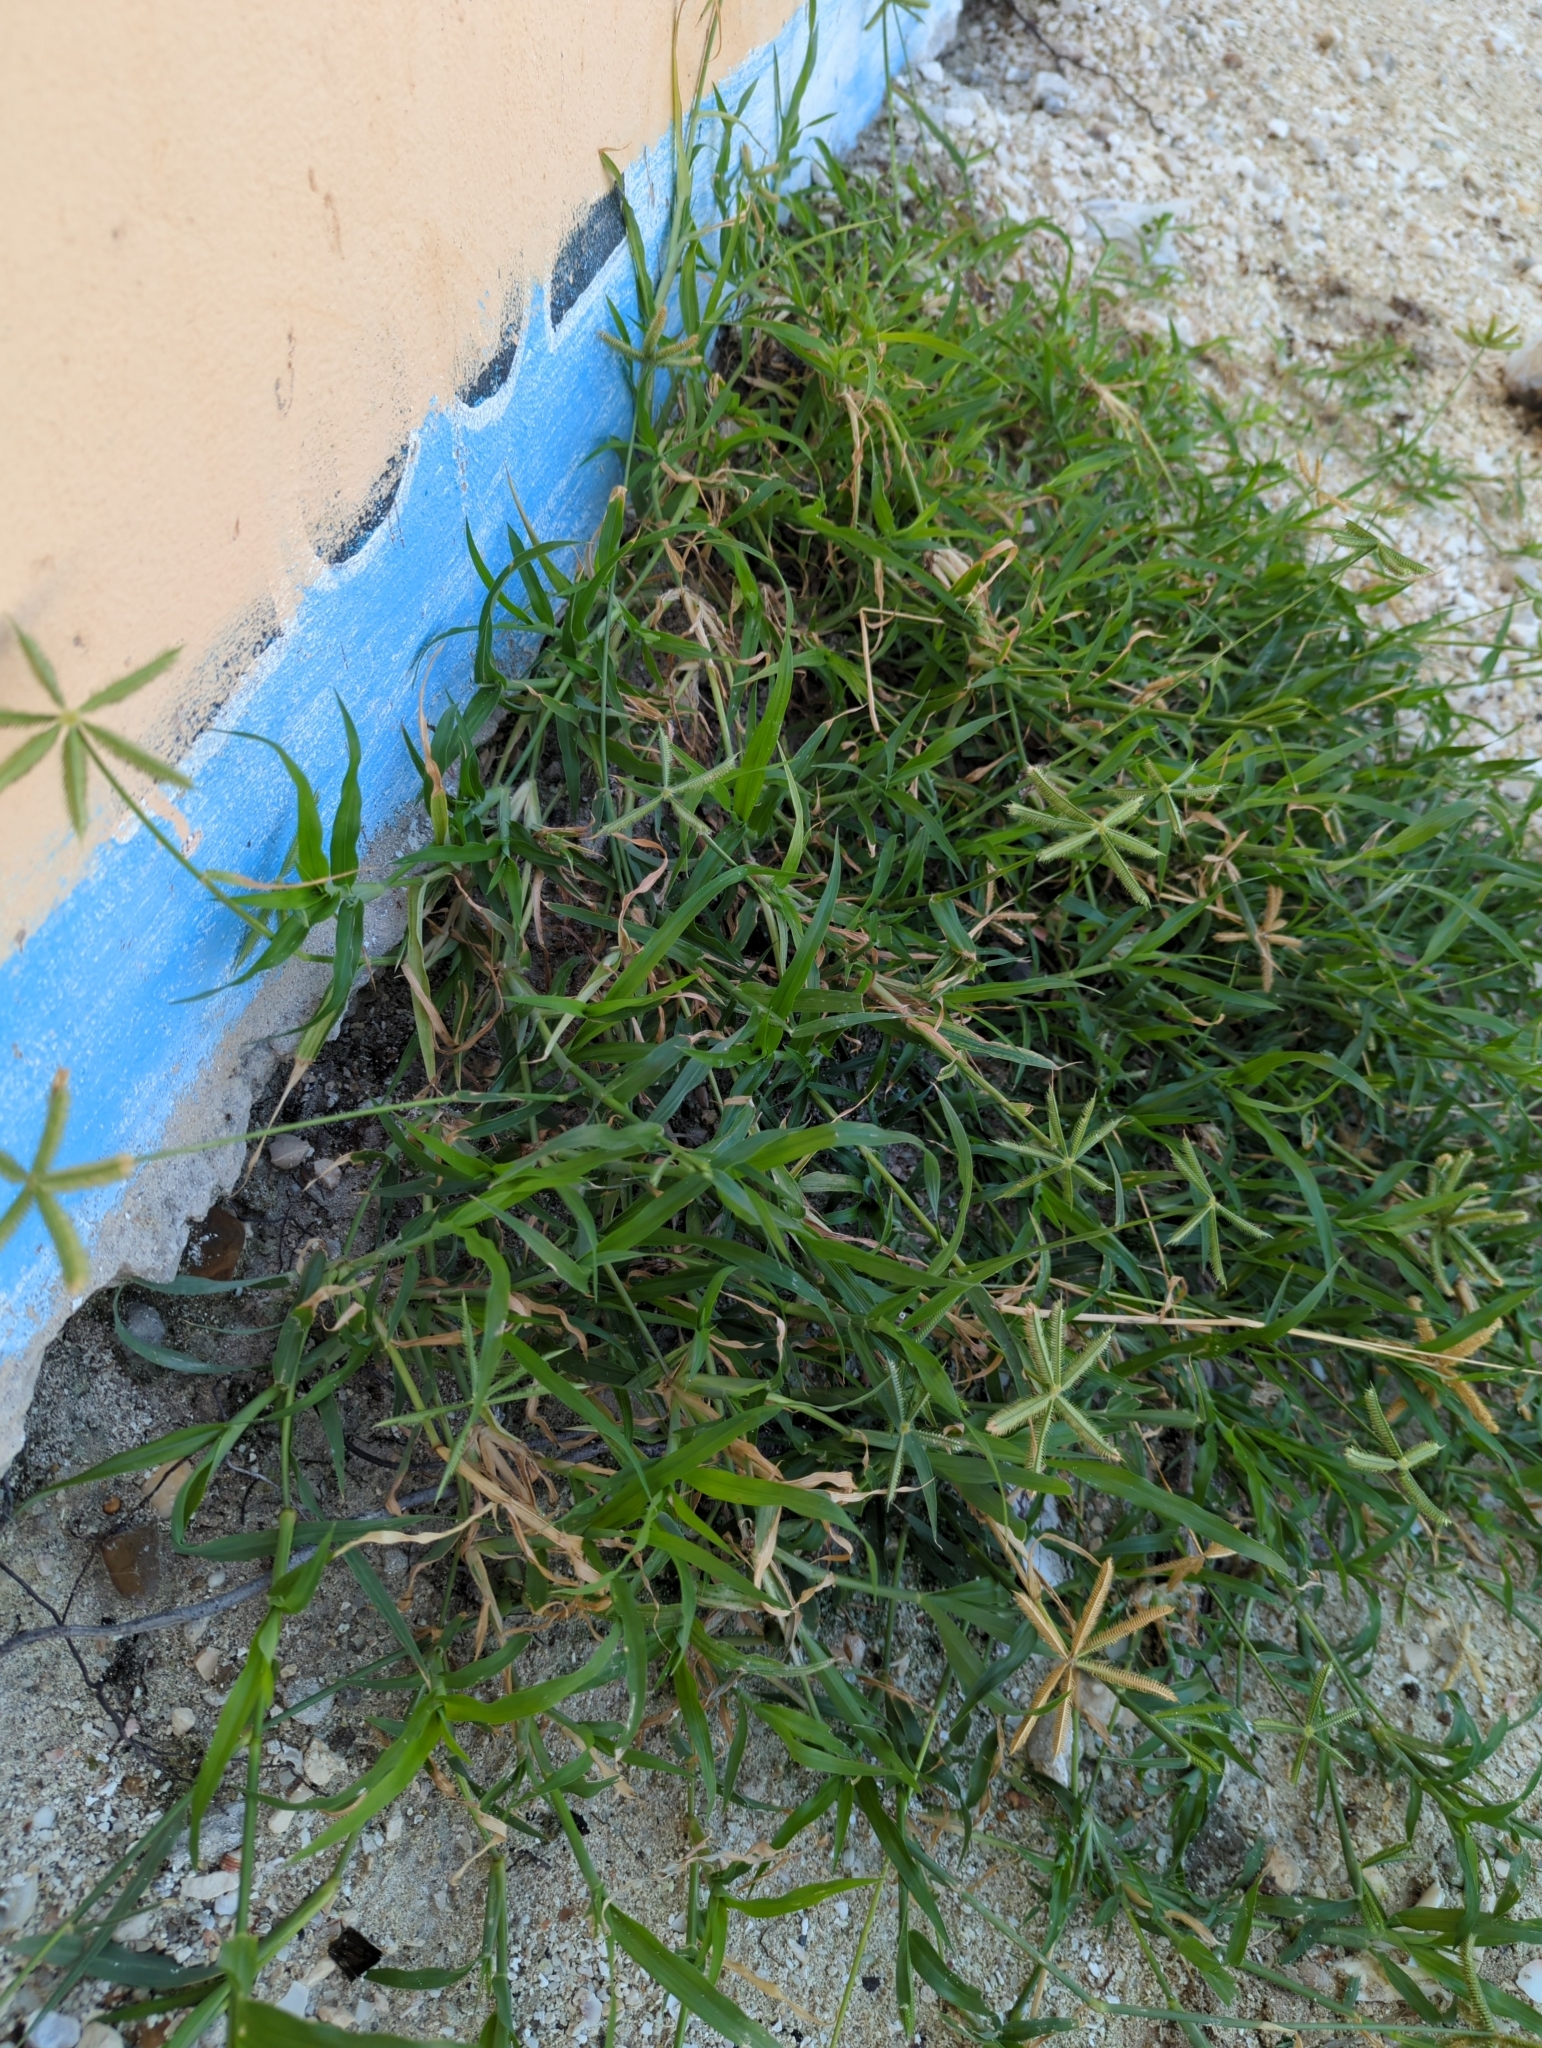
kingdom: Plantae
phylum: Tracheophyta
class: Liliopsida
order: Poales
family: Poaceae
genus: Dactyloctenium
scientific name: Dactyloctenium aegyptium
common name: Egyptian grass
